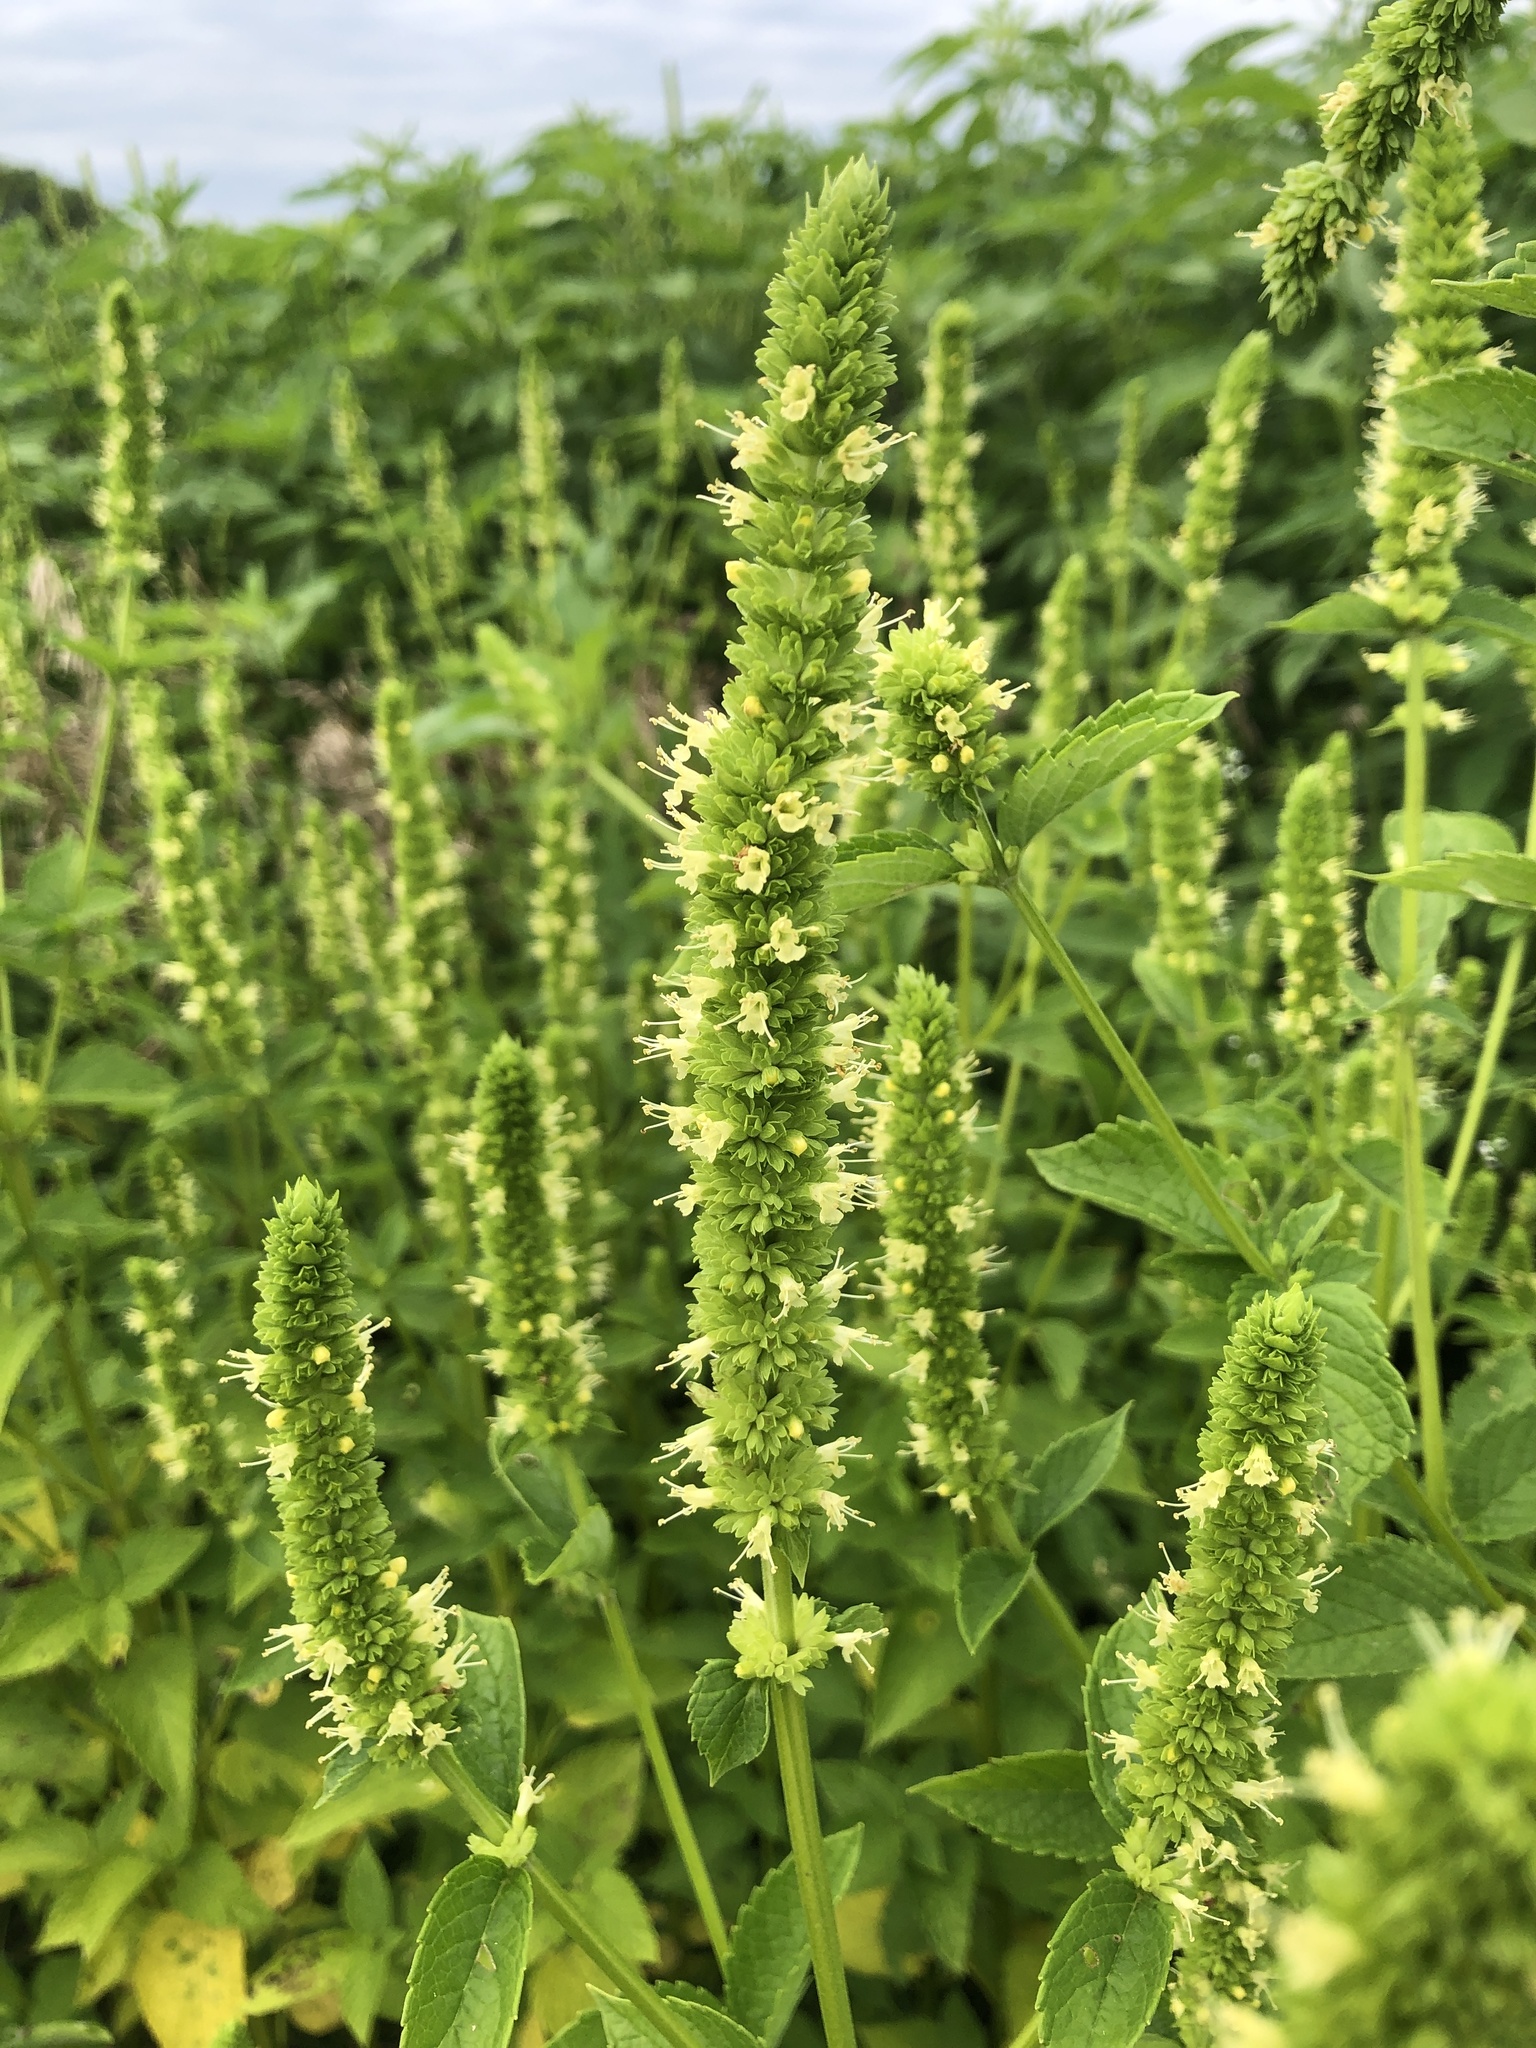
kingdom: Plantae
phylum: Tracheophyta
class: Magnoliopsida
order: Lamiales
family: Lamiaceae
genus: Agastache
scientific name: Agastache nepetoides
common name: Catnip giant hyssop
